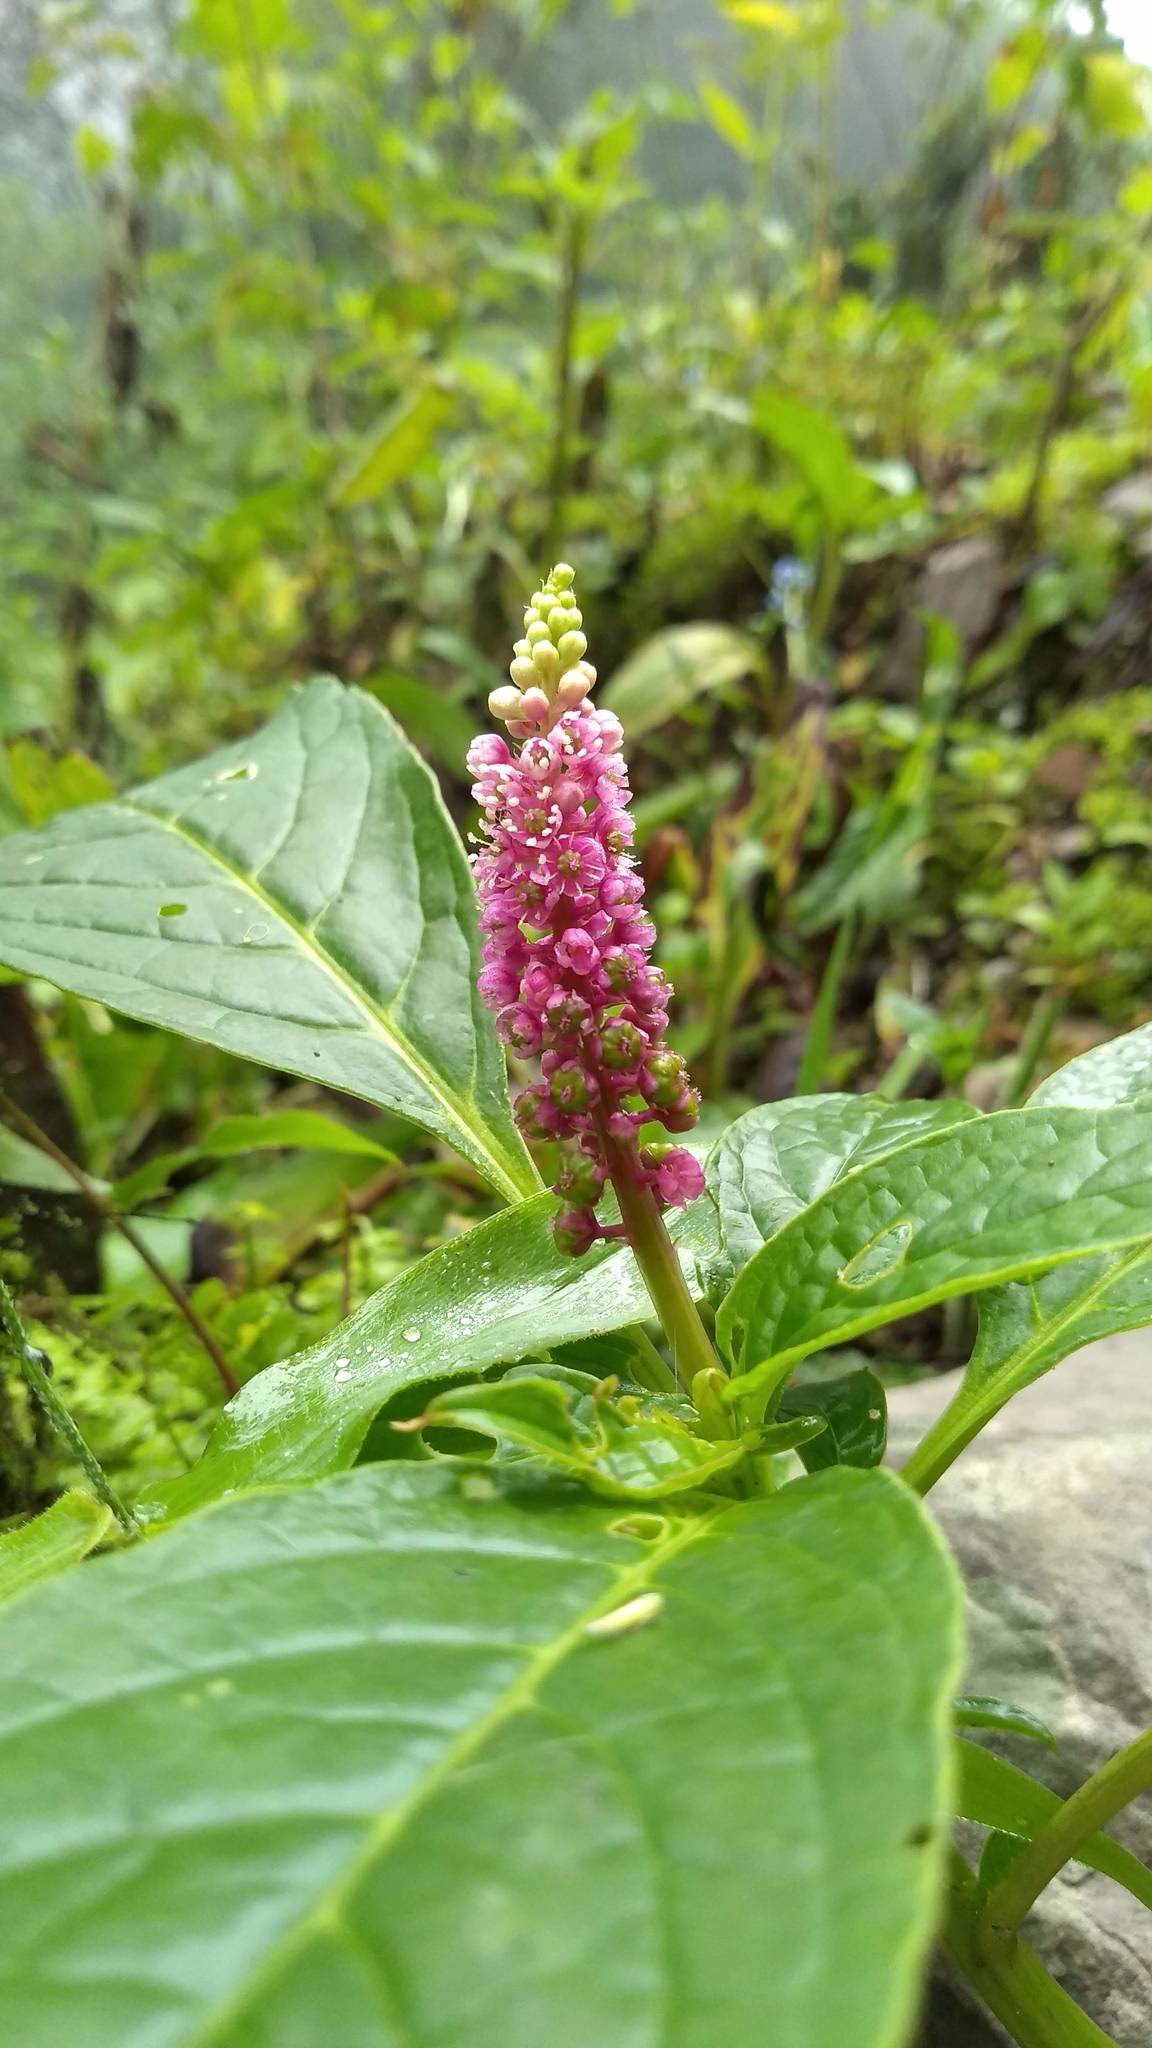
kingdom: Plantae
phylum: Tracheophyta
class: Magnoliopsida
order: Caryophyllales
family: Phytolaccaceae
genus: Phytolacca
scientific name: Phytolacca bogotensis
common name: Southern pokeweed
